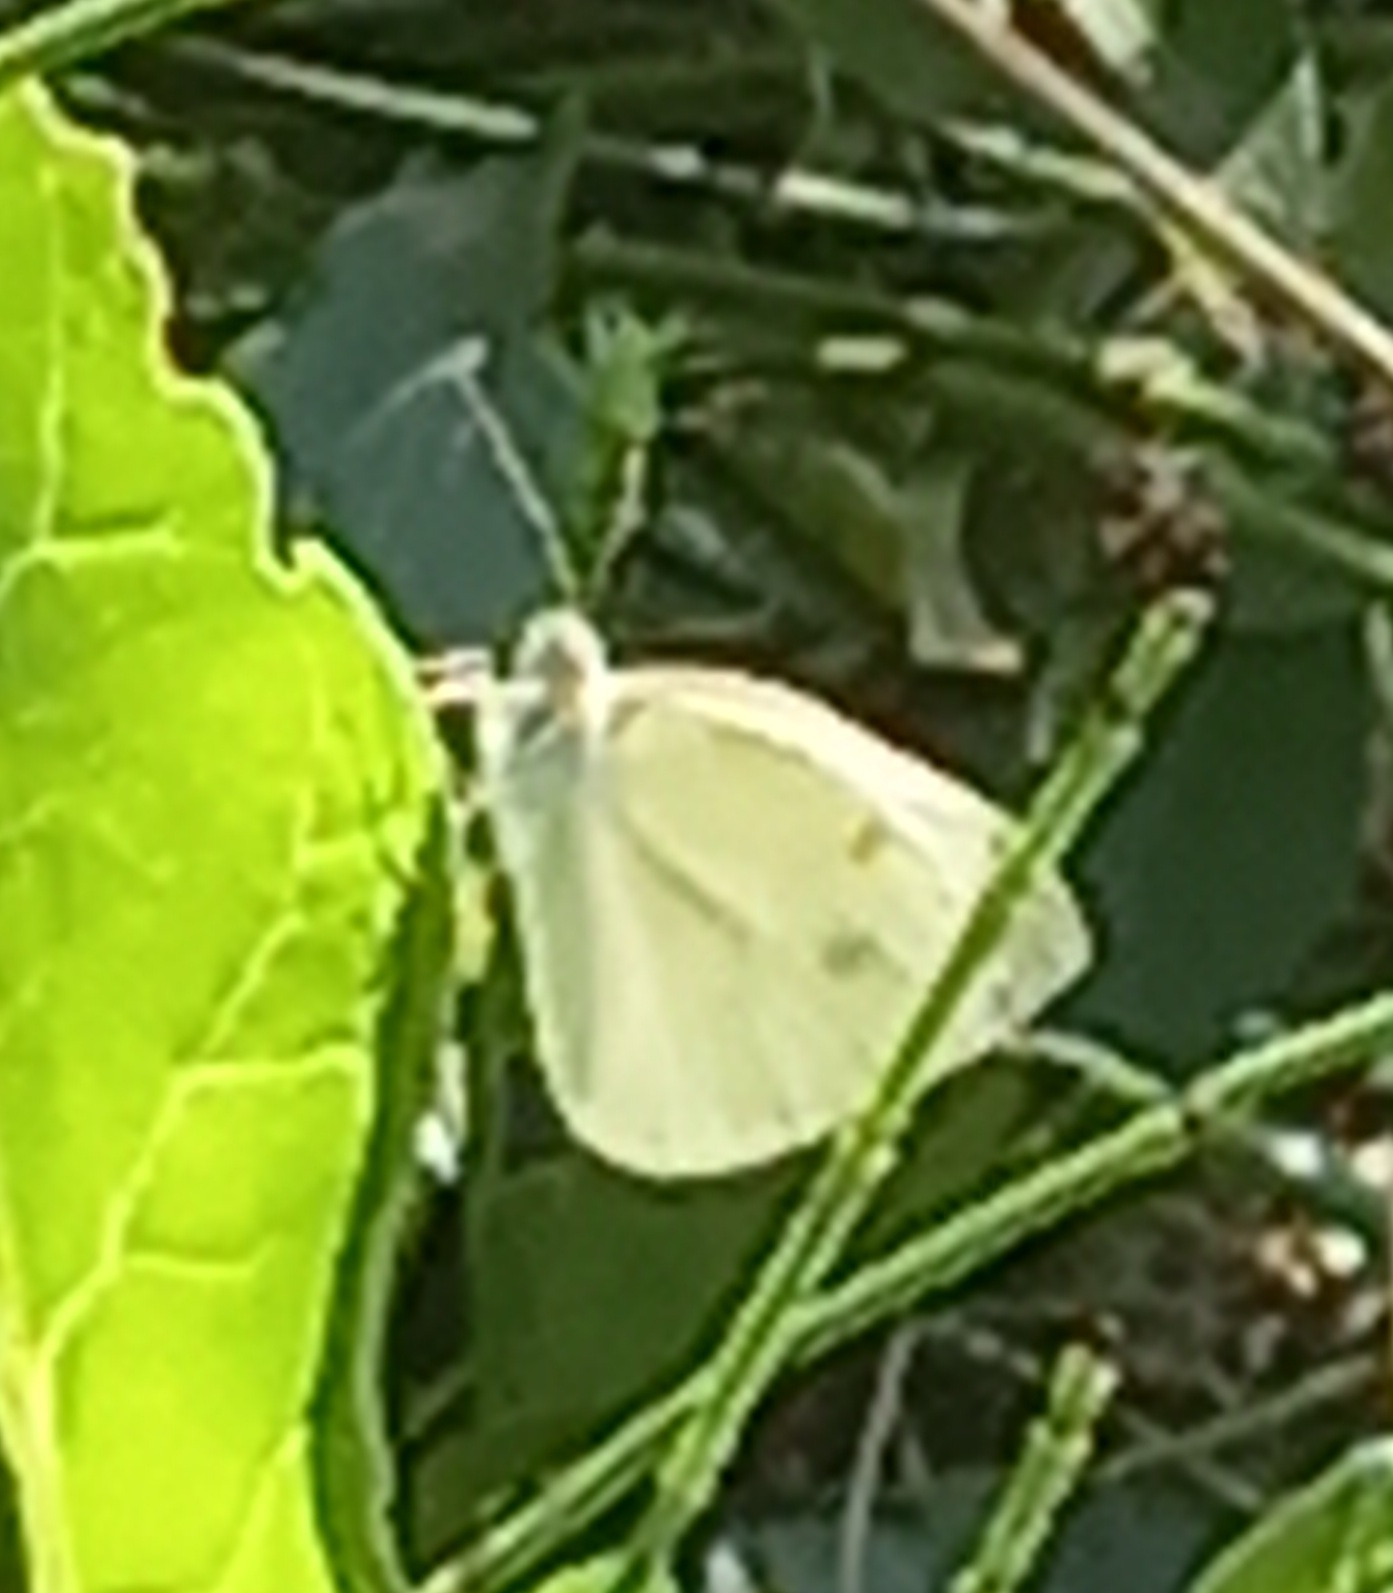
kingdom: Animalia
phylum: Arthropoda
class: Insecta
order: Lepidoptera
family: Pieridae
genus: Pieris
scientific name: Pieris rapae
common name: Small white
